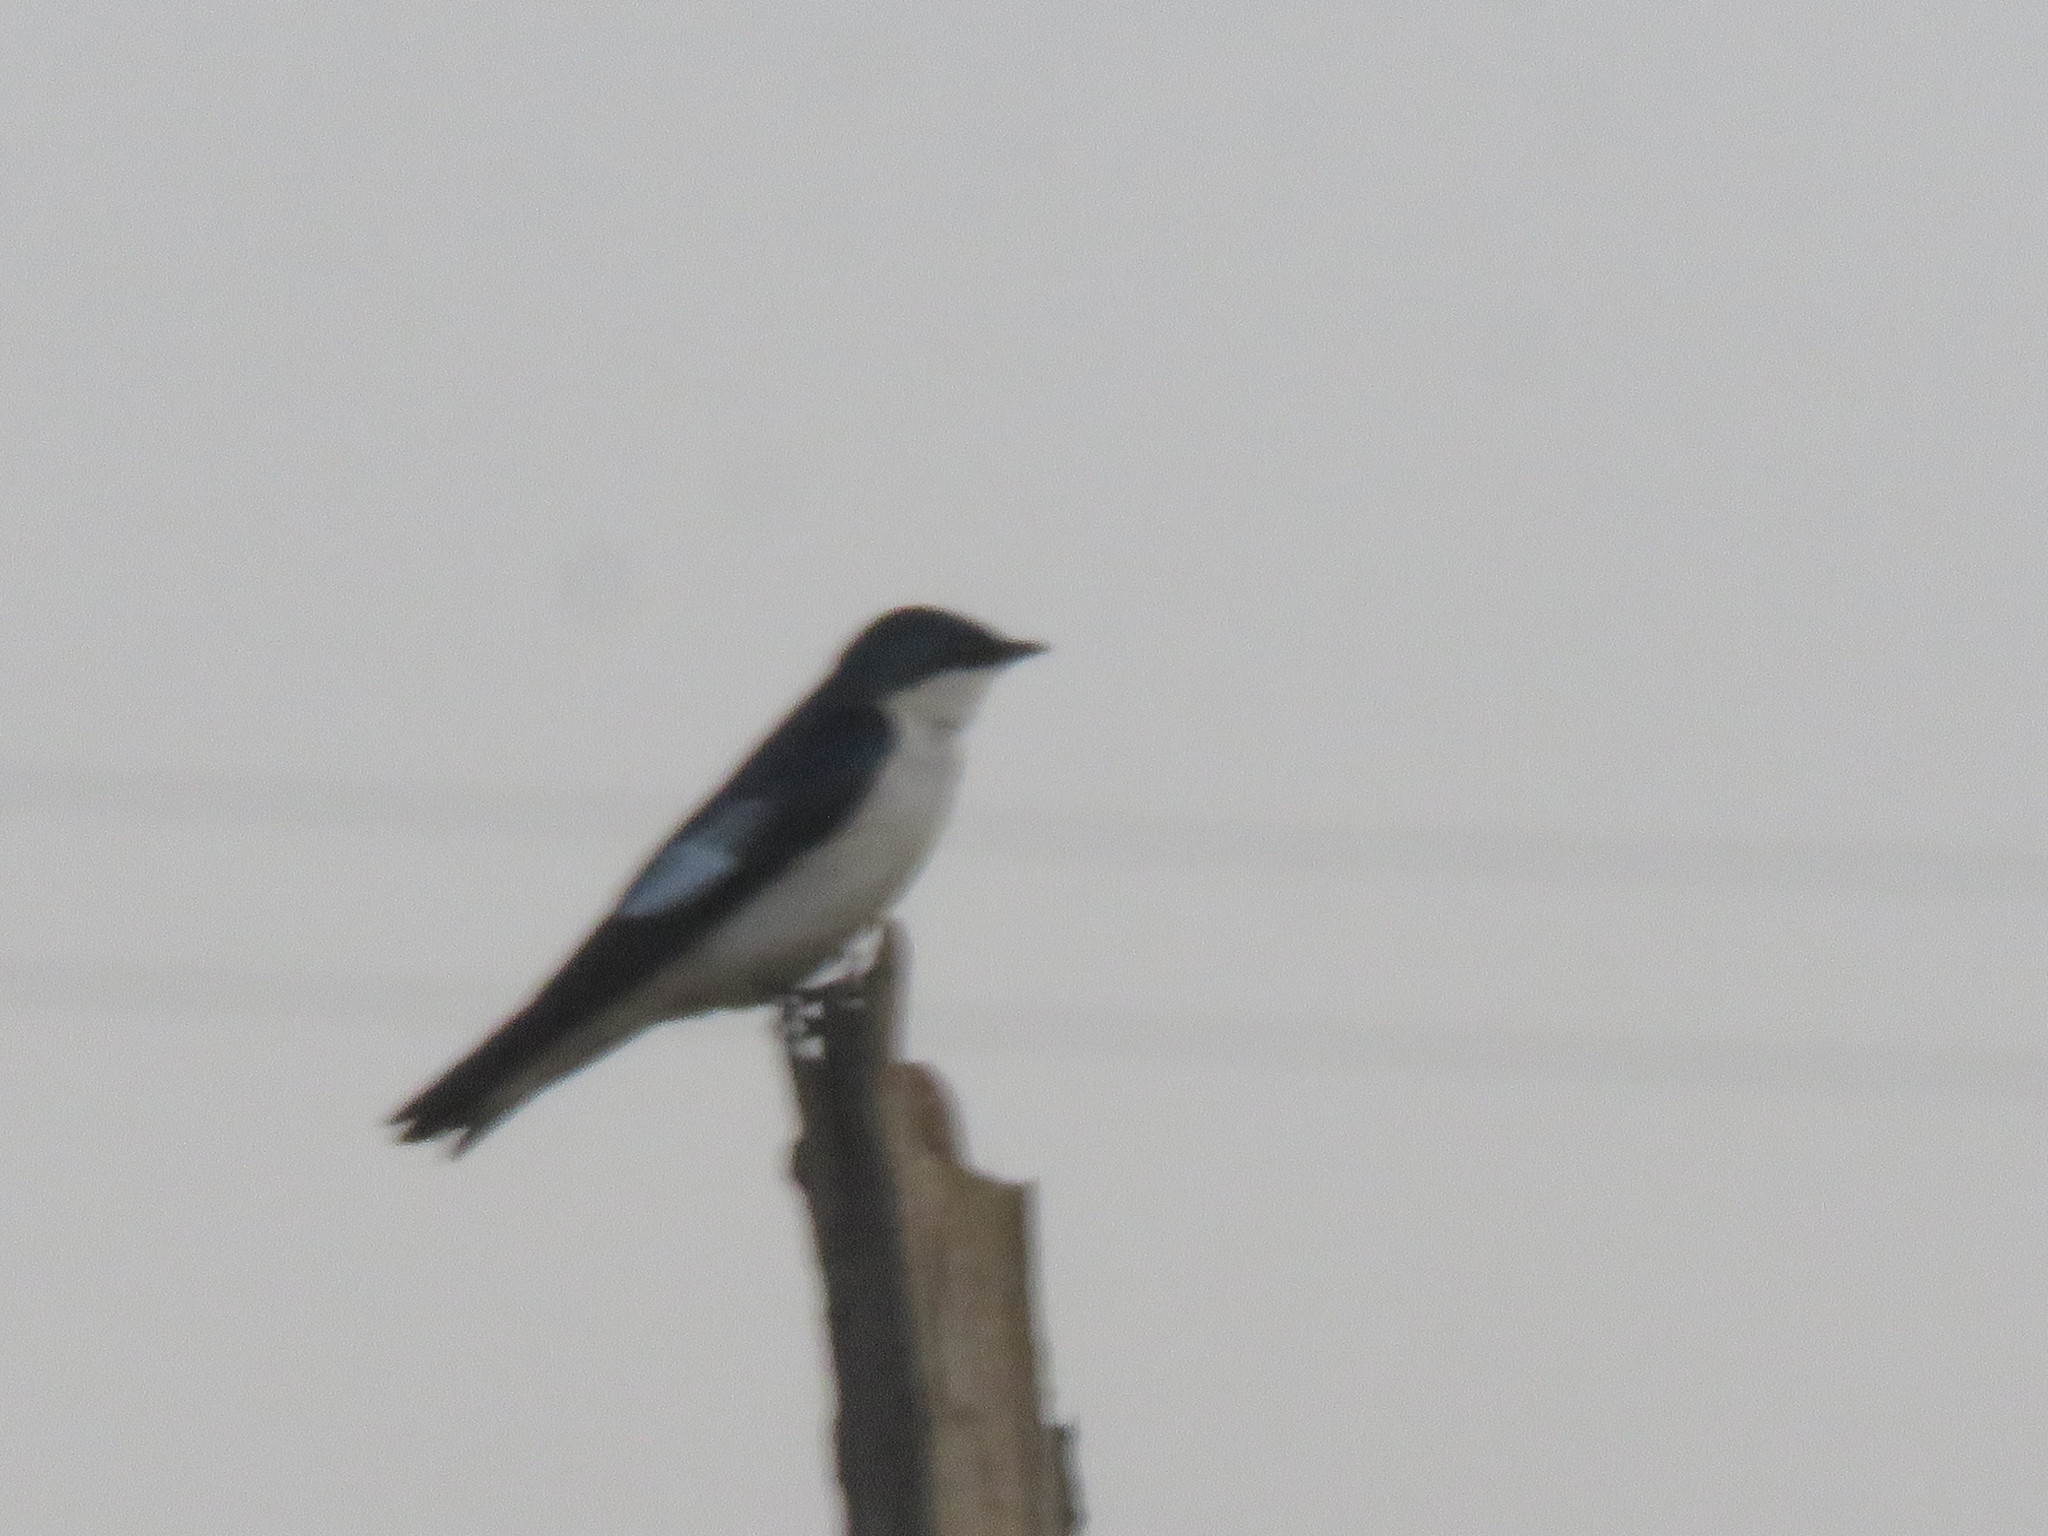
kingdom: Animalia
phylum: Chordata
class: Aves
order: Passeriformes
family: Hirundinidae
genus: Tachycineta
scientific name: Tachycineta albiventer
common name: White-winged swallow
